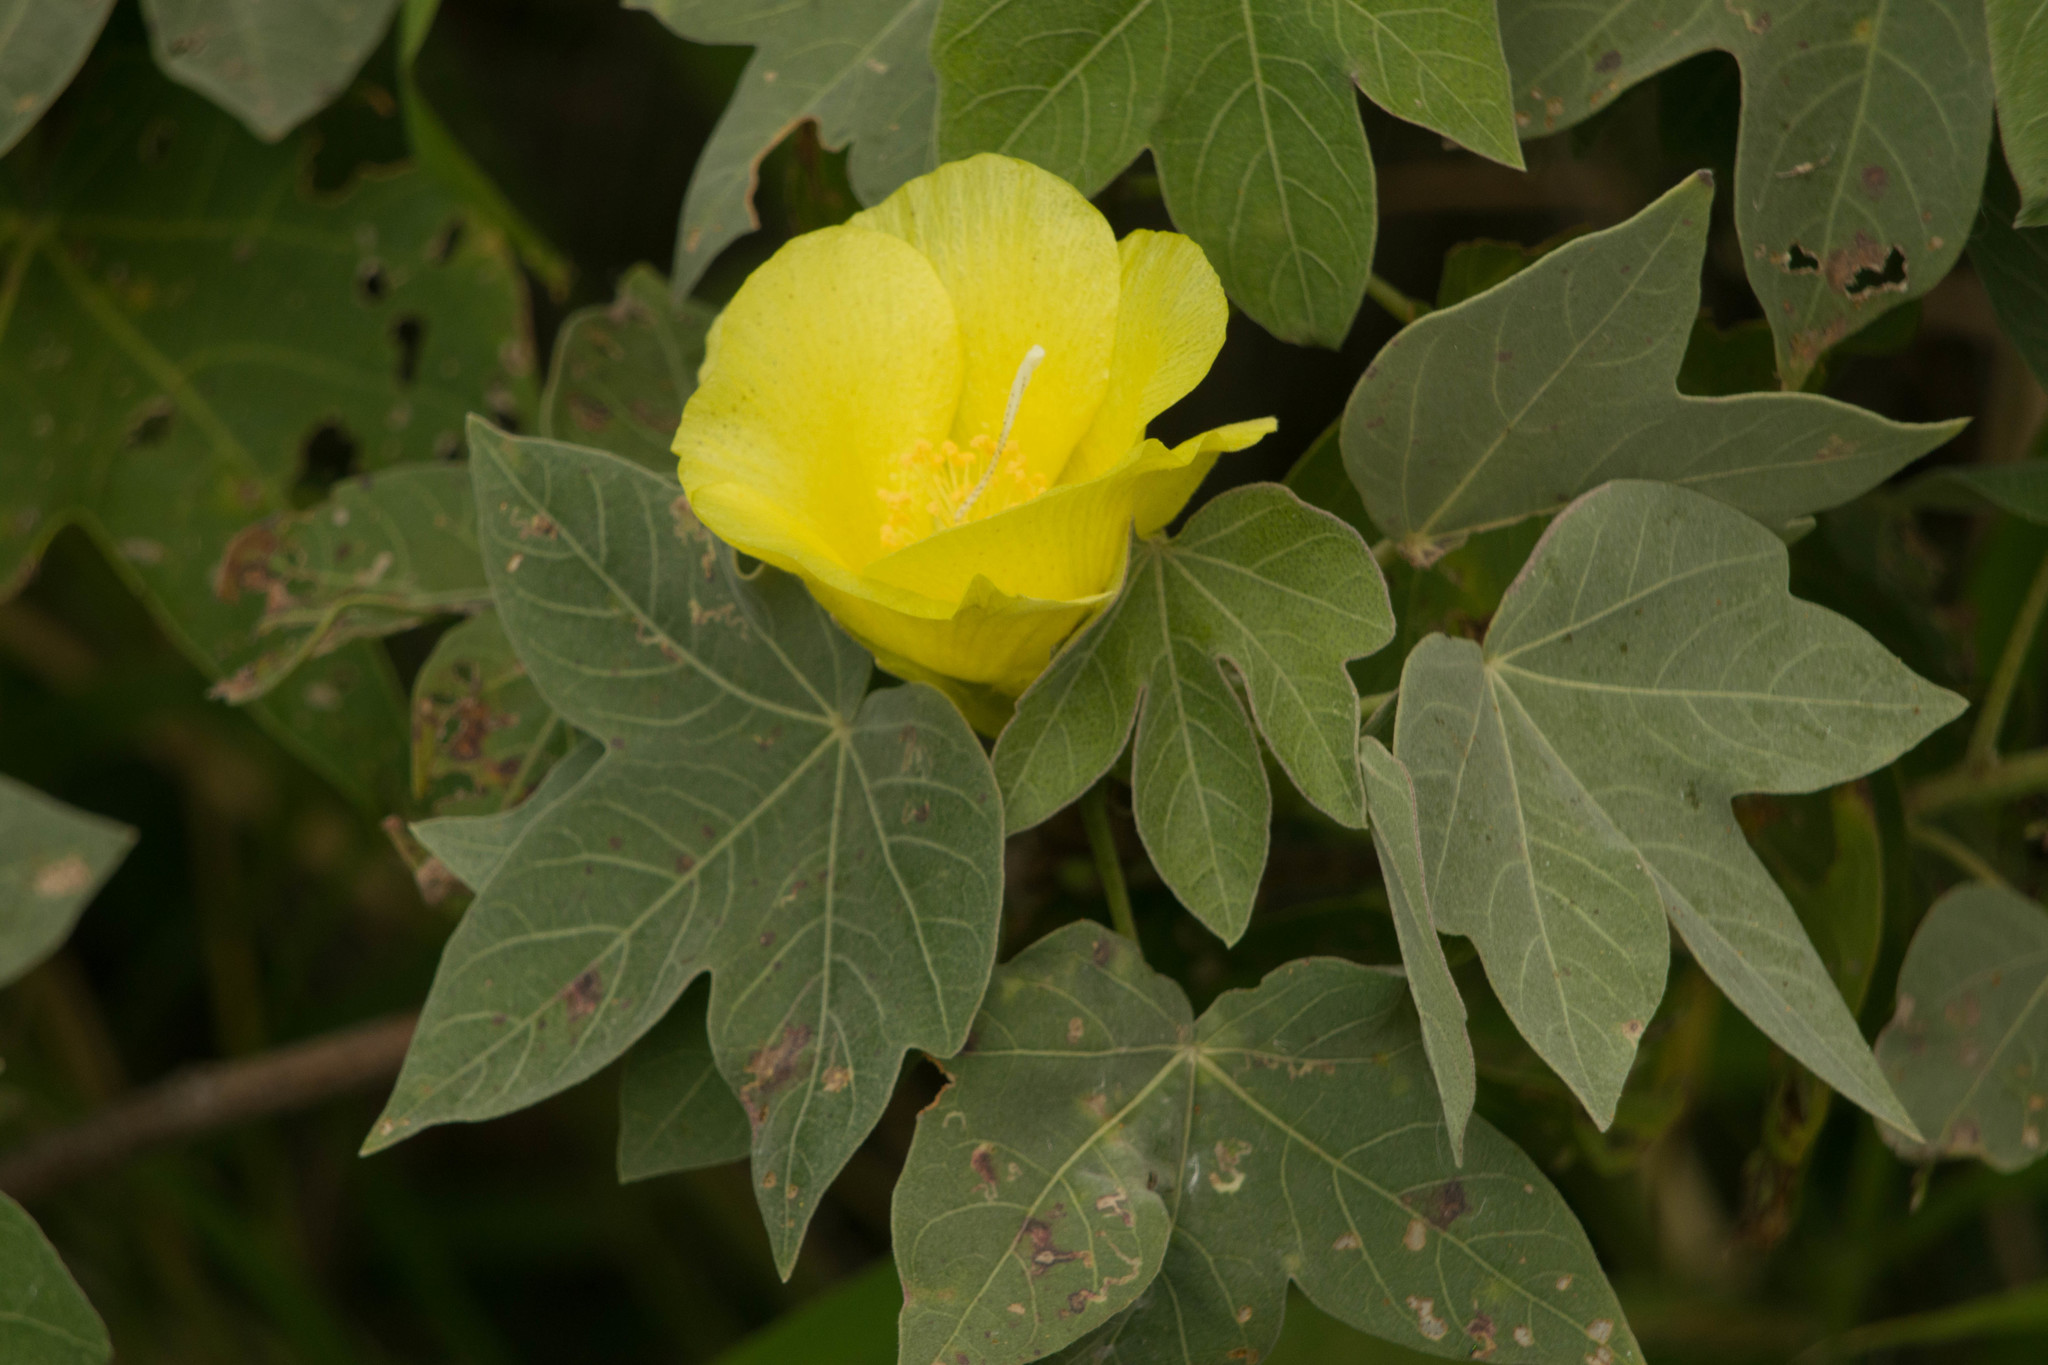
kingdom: Plantae
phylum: Tracheophyta
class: Magnoliopsida
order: Malvales
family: Malvaceae
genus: Gossypium
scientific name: Gossypium tomentosum
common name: Hawaiian cotton
